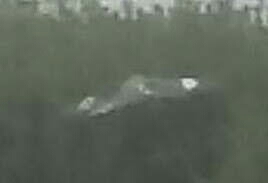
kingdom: Animalia
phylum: Chordata
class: Aves
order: Passeriformes
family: Mimidae
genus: Mimus
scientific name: Mimus polyglottos
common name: Northern mockingbird
